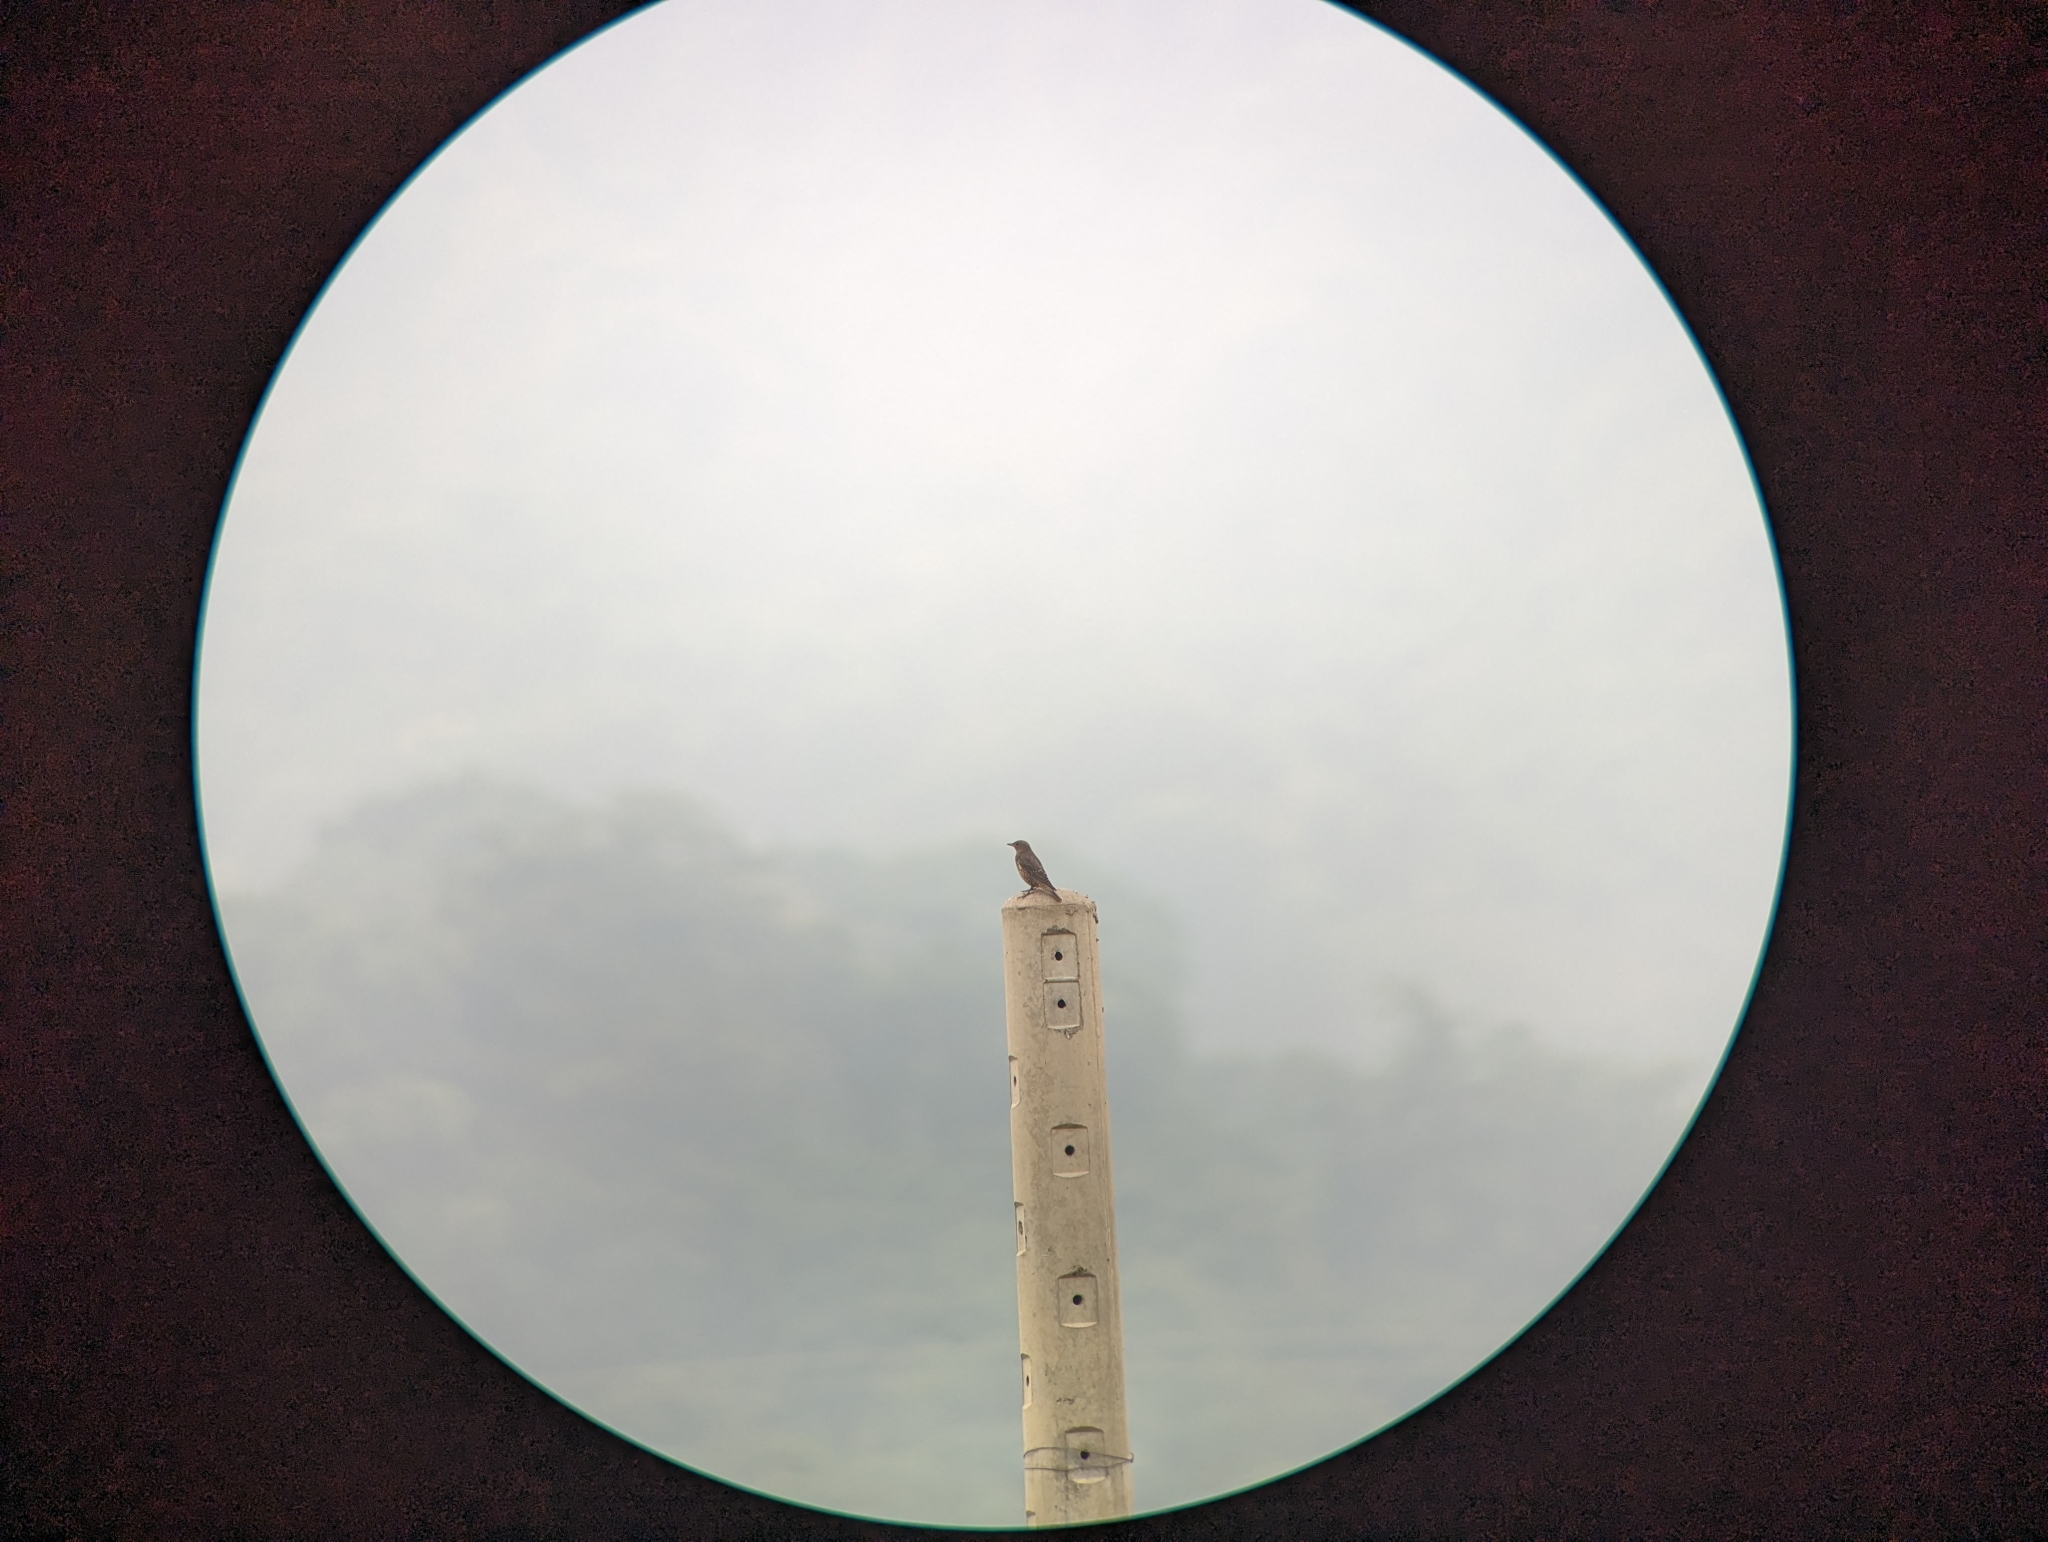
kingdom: Animalia
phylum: Chordata
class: Aves
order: Passeriformes
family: Muscicapidae
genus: Monticola
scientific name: Monticola solitarius
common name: Blue rock thrush
